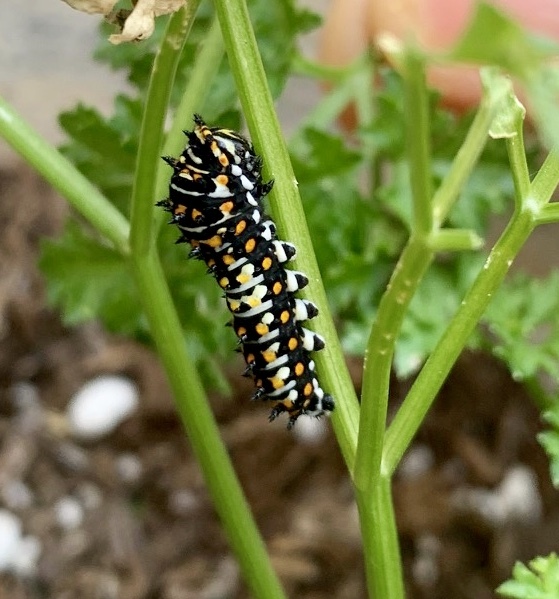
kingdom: Animalia
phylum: Arthropoda
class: Insecta
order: Lepidoptera
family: Papilionidae
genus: Papilio
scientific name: Papilio zelicaon
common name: Anise swallowtail
